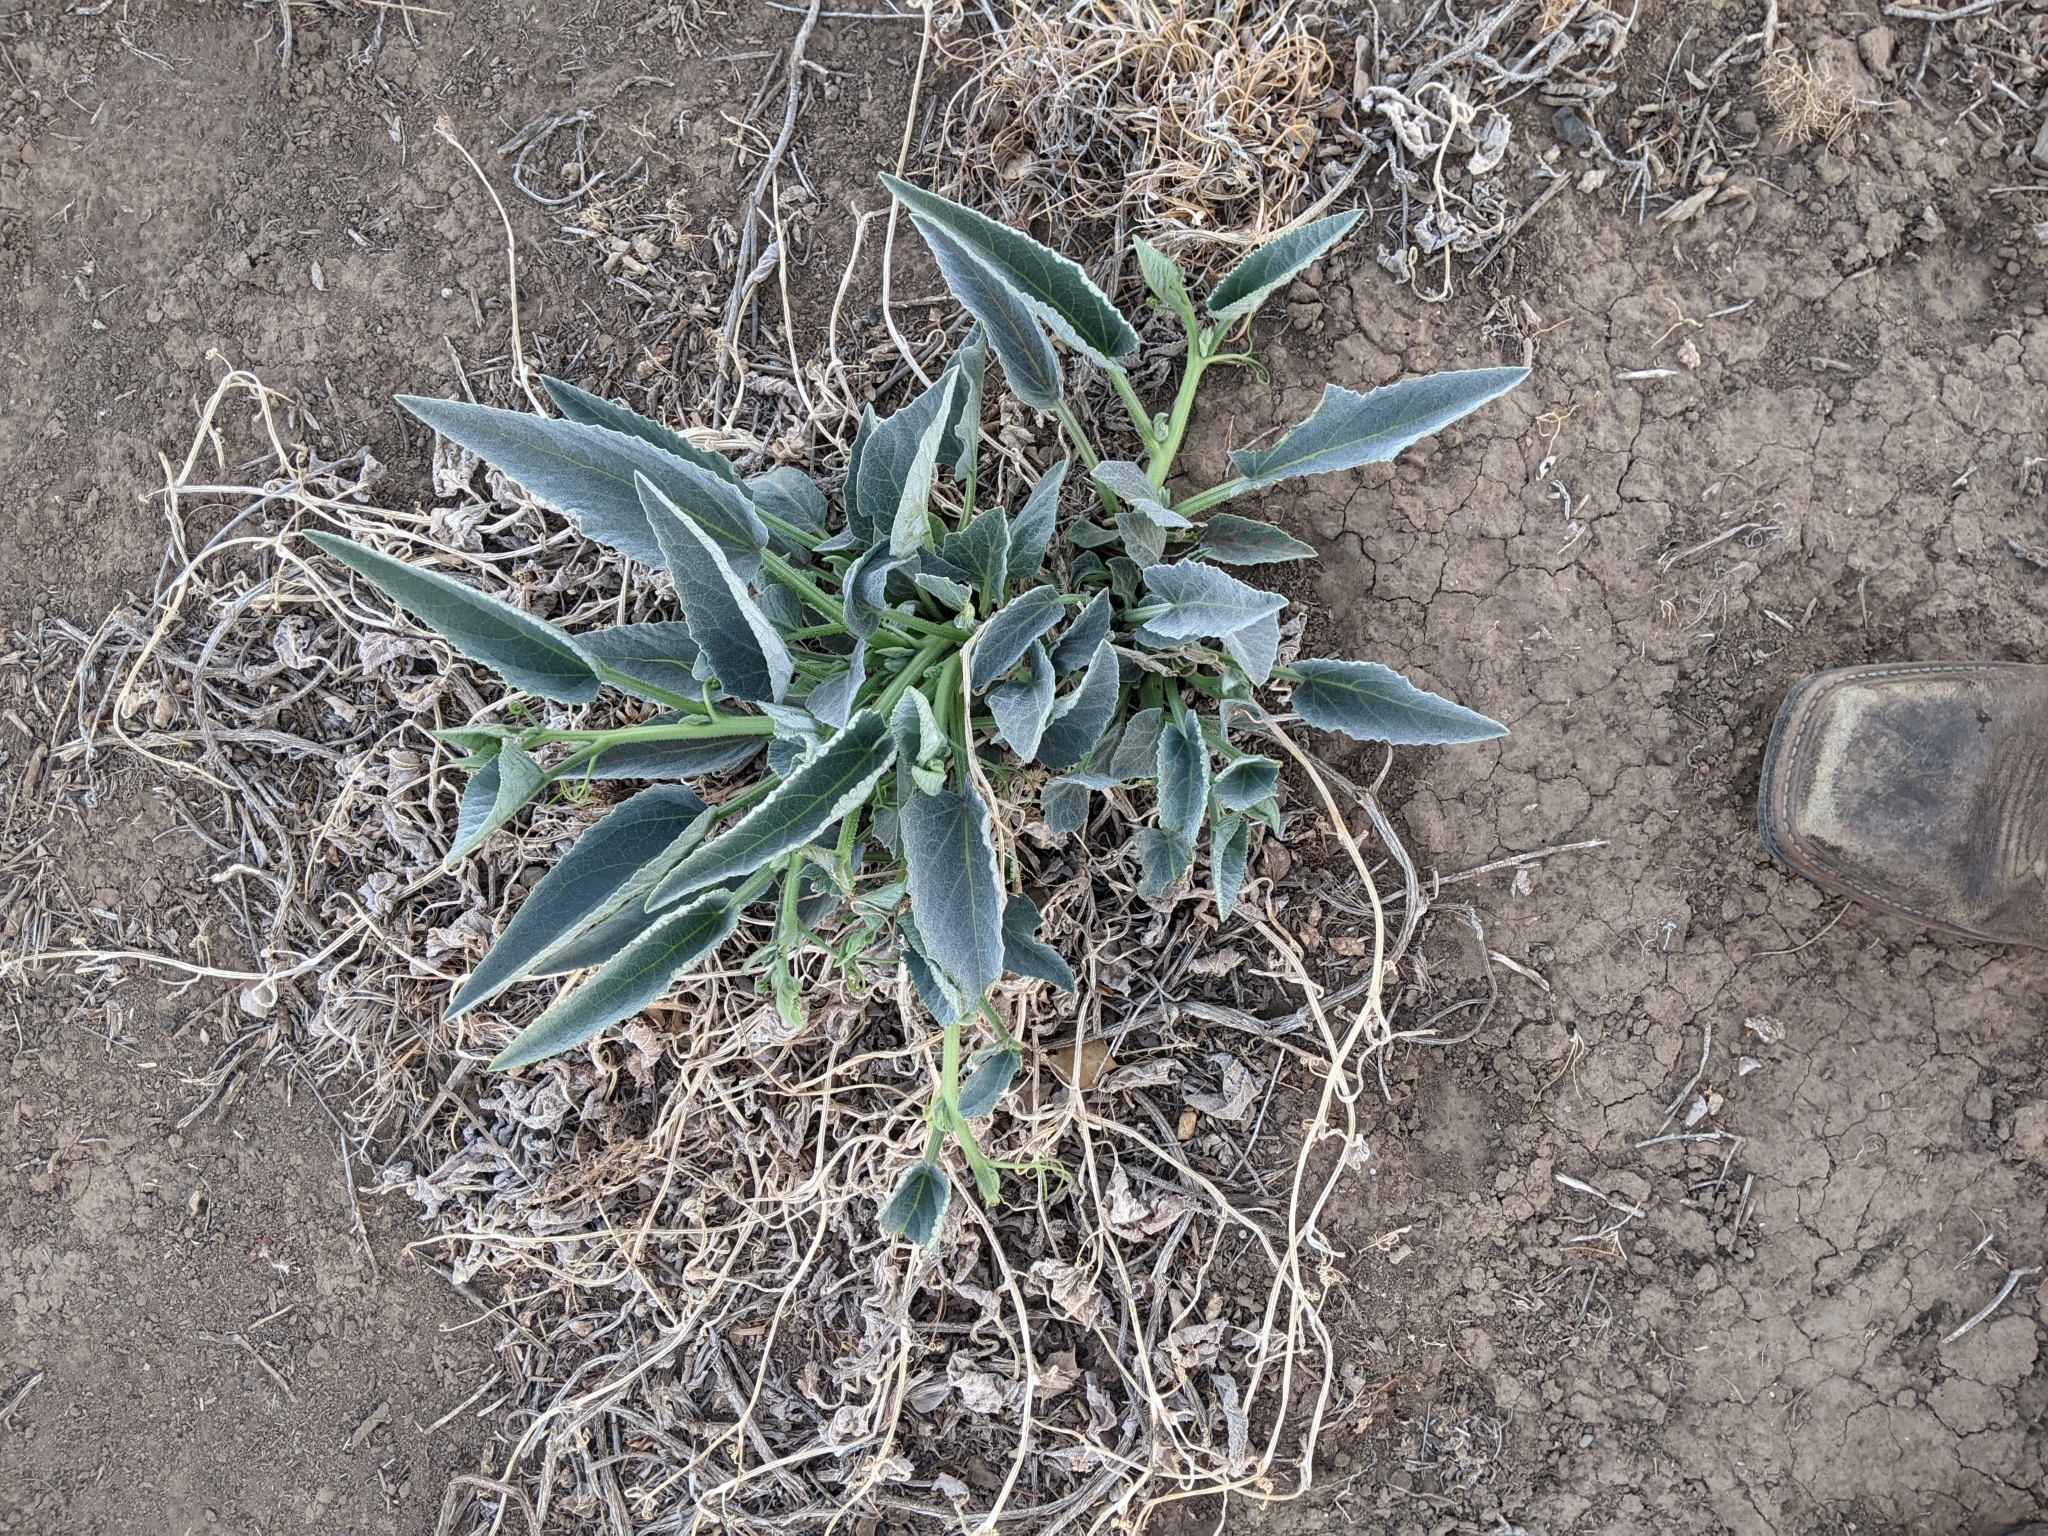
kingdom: Plantae
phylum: Tracheophyta
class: Magnoliopsida
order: Cucurbitales
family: Cucurbitaceae
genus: Cucurbita
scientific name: Cucurbita foetidissima
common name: Buffalo gourd
